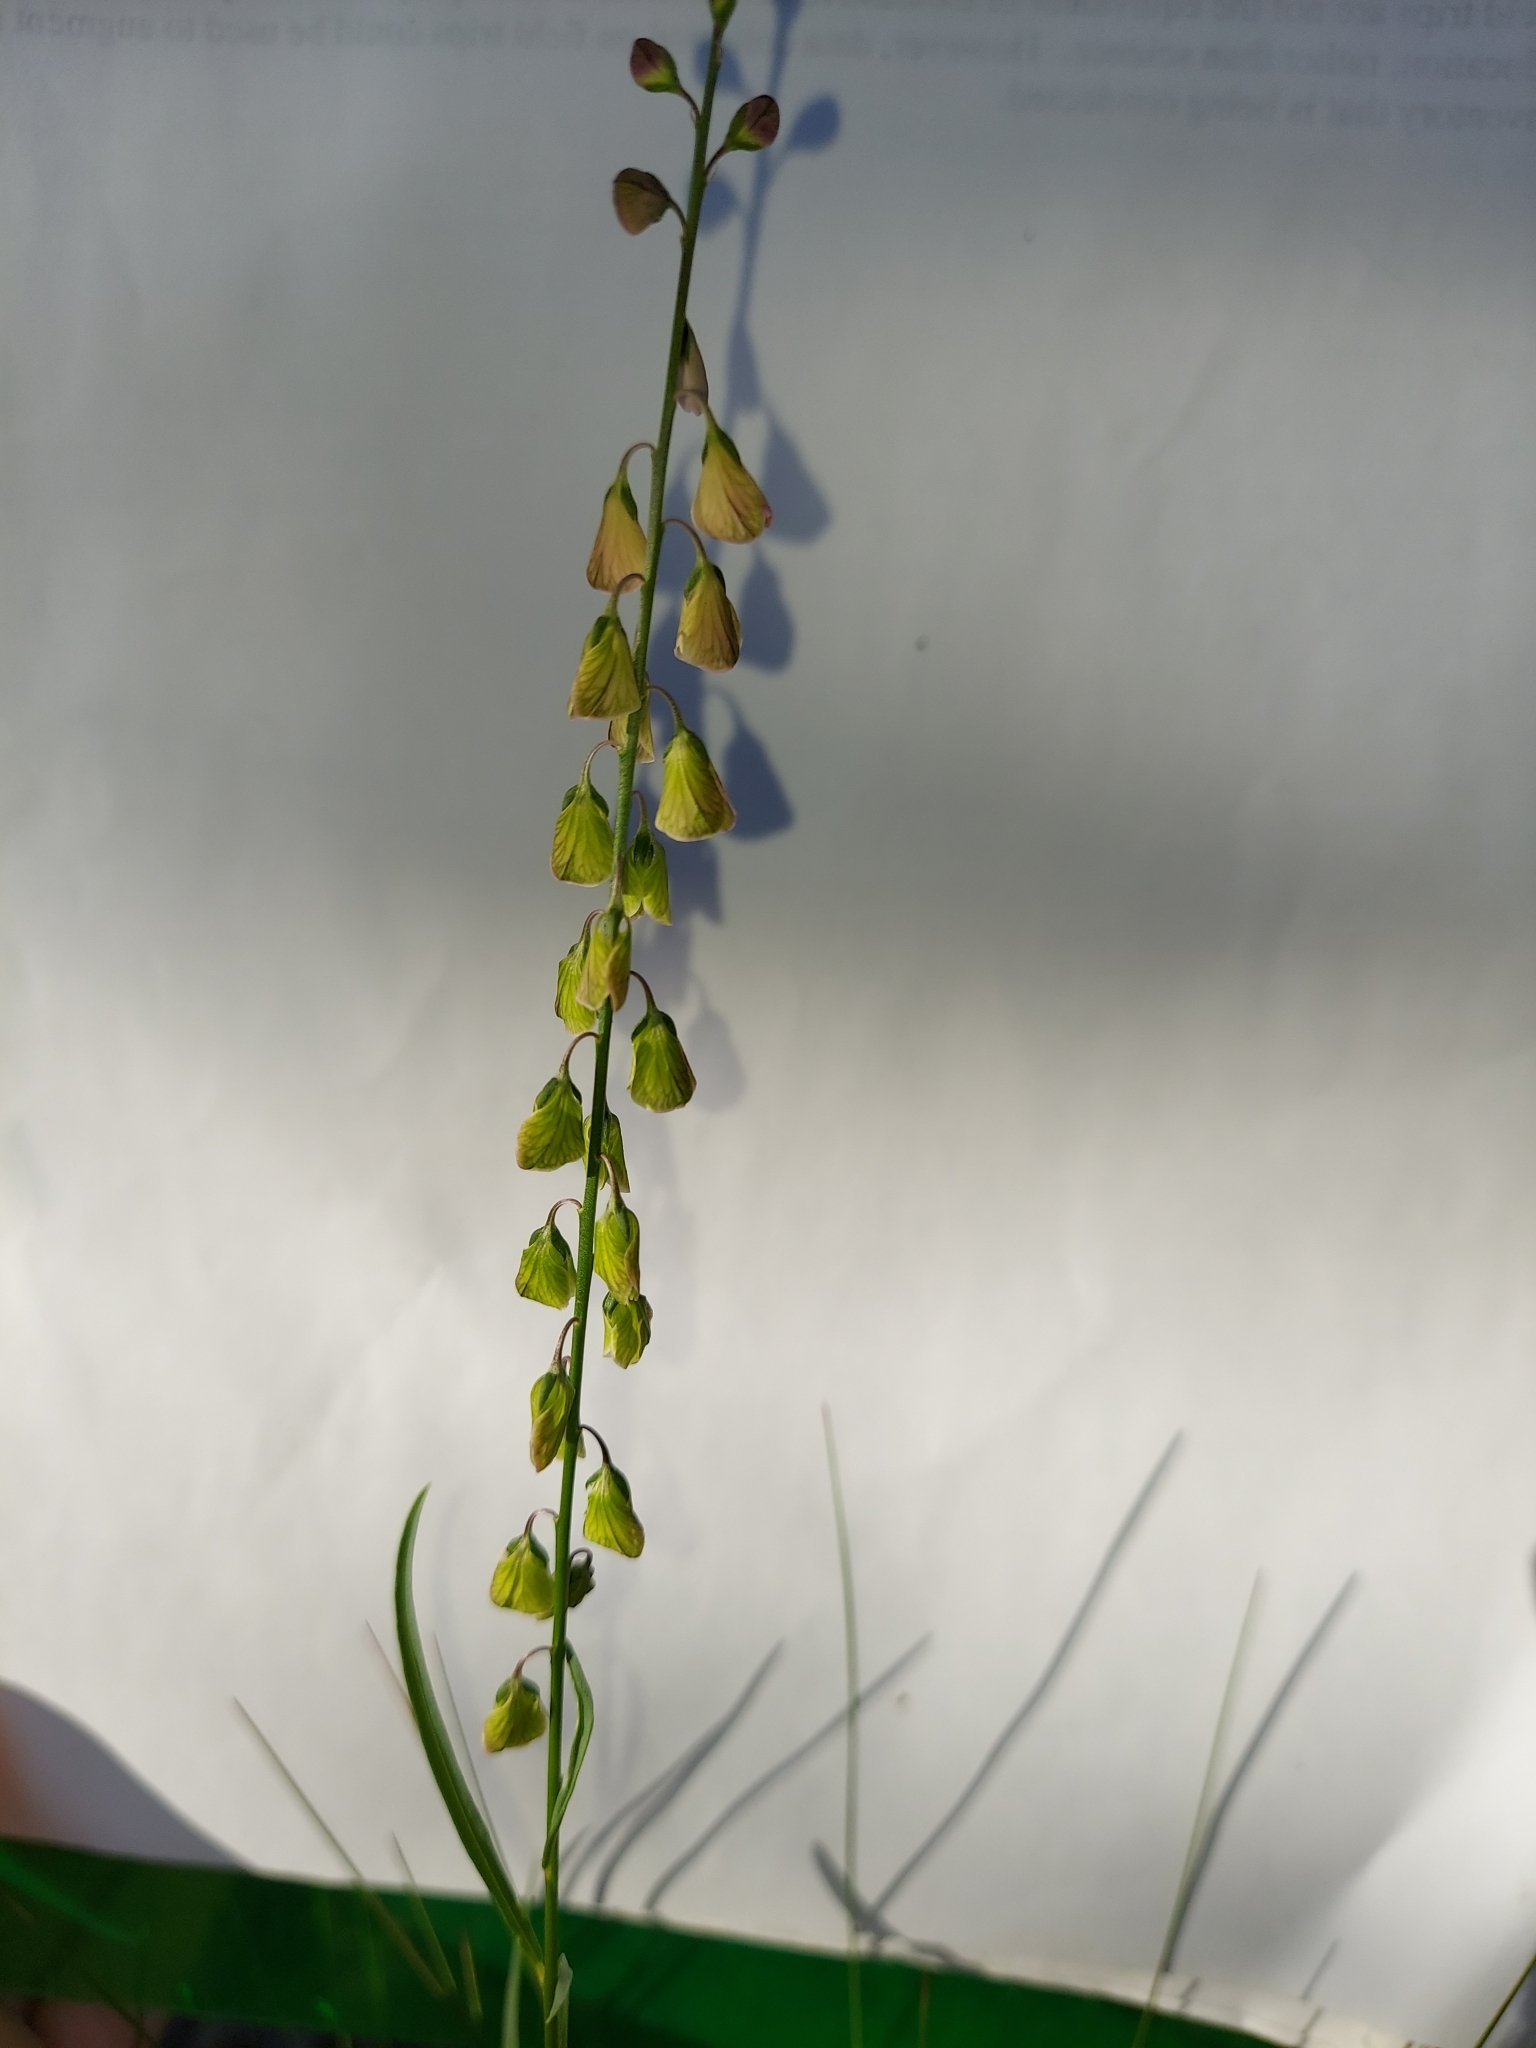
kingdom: Plantae
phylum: Tracheophyta
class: Magnoliopsida
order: Fabales
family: Polygalaceae
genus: Asemeia
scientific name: Asemeia grandiflora
